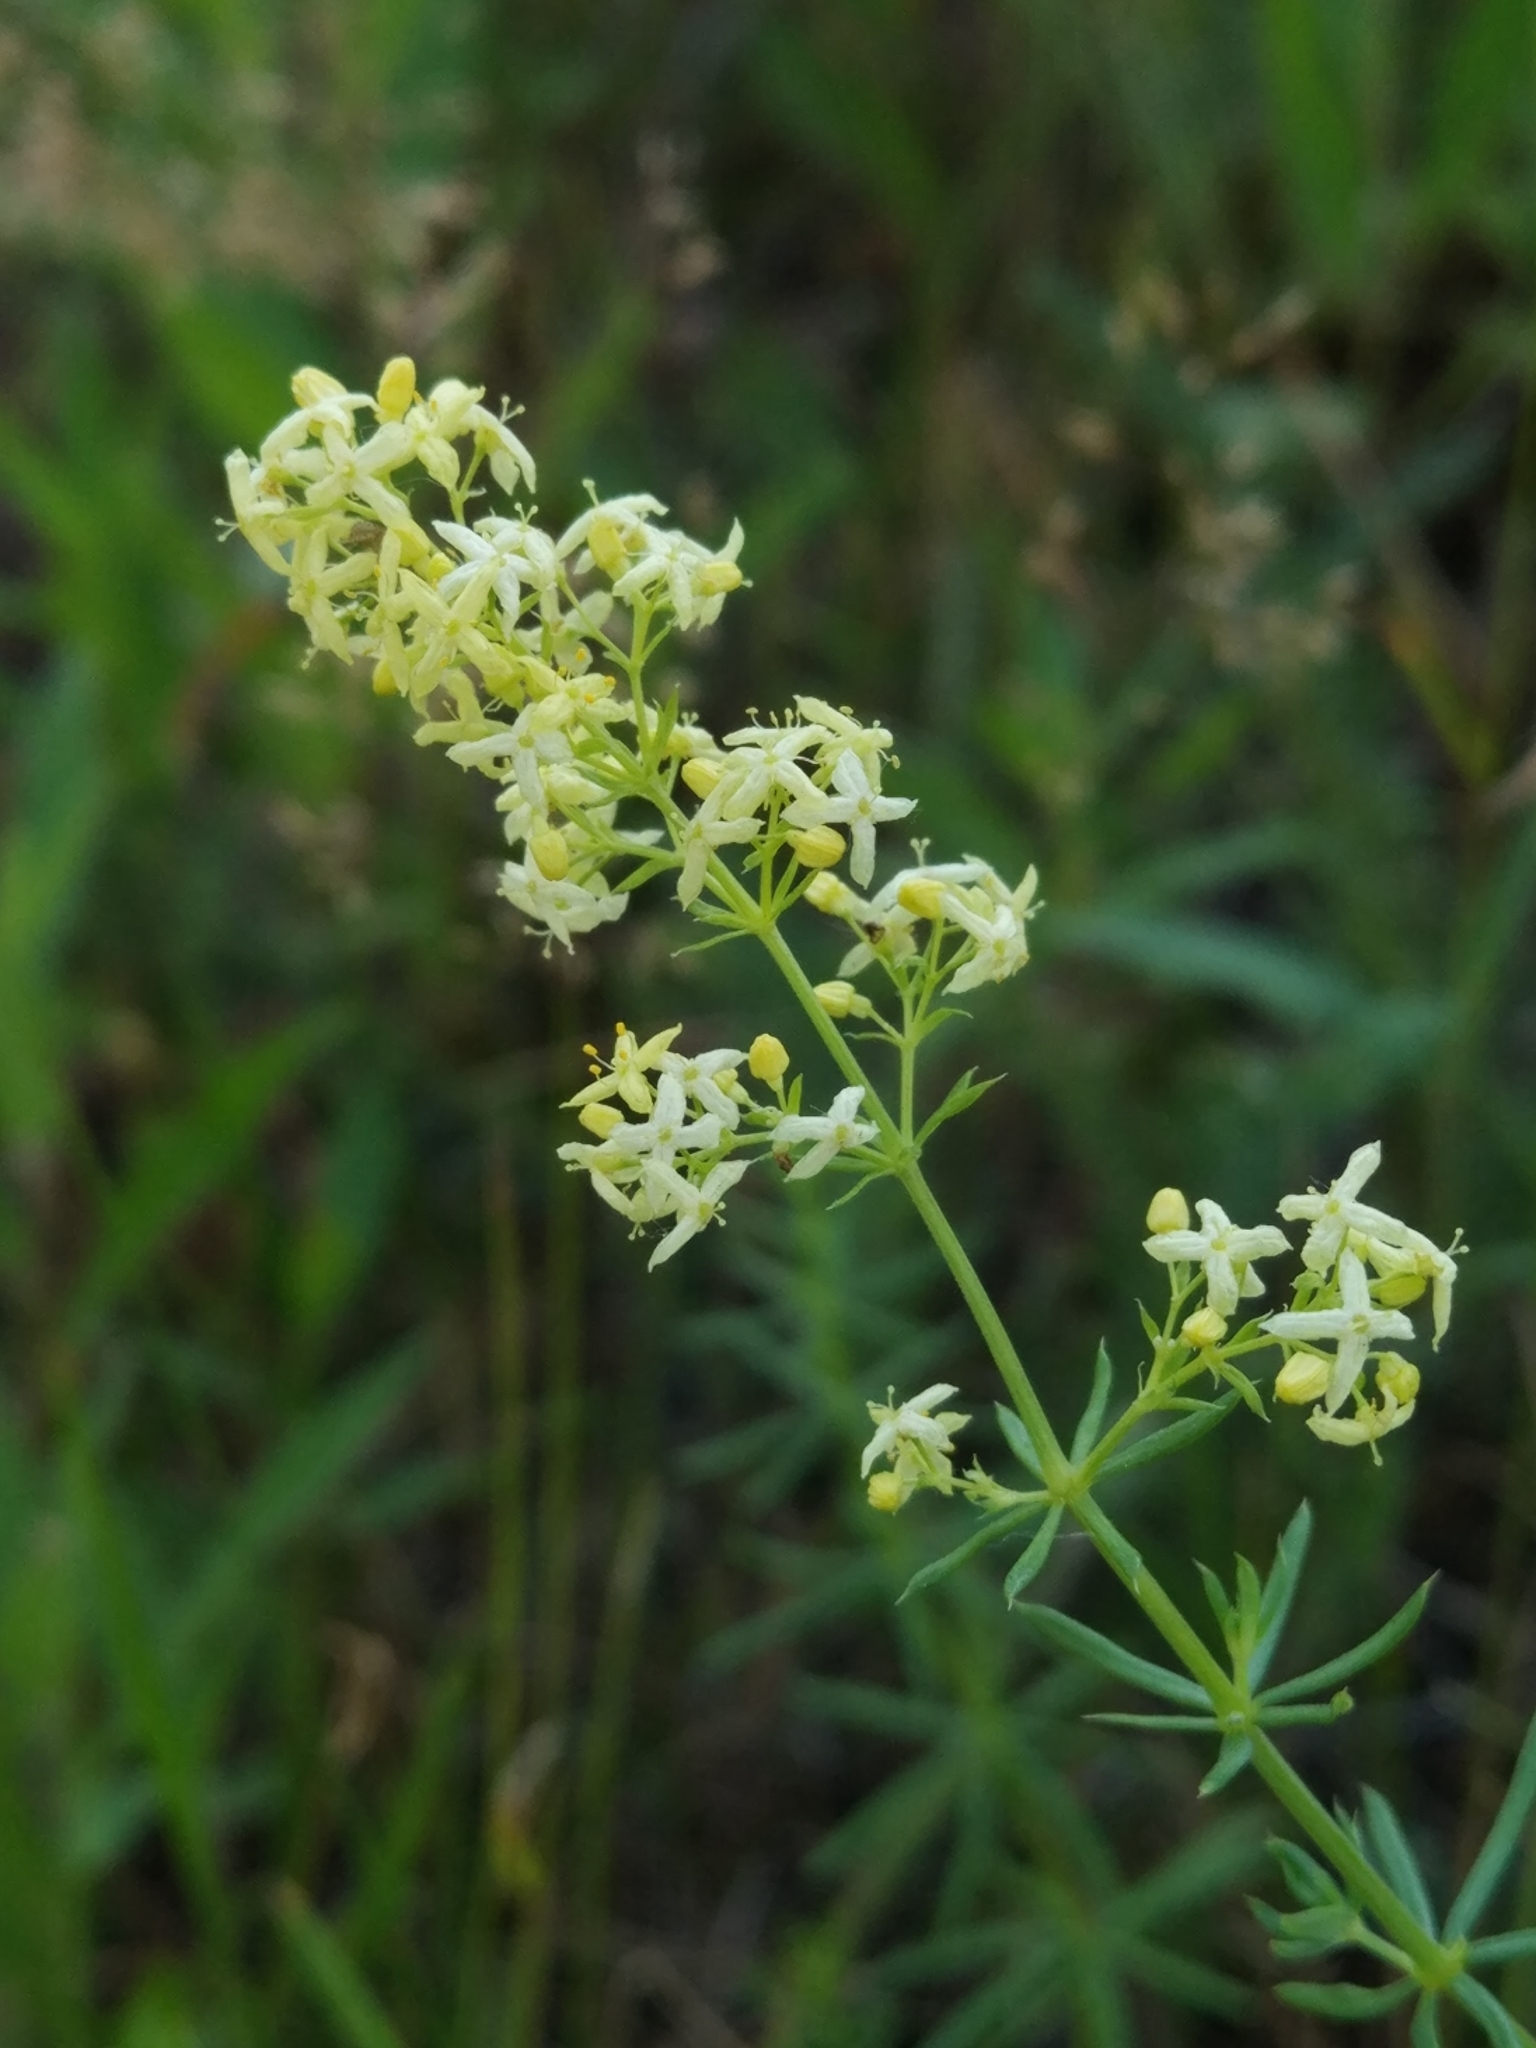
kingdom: Plantae
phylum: Tracheophyta
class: Magnoliopsida
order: Gentianales
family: Rubiaceae
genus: Galium
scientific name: Galium pomeranicum
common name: Bedstraw
